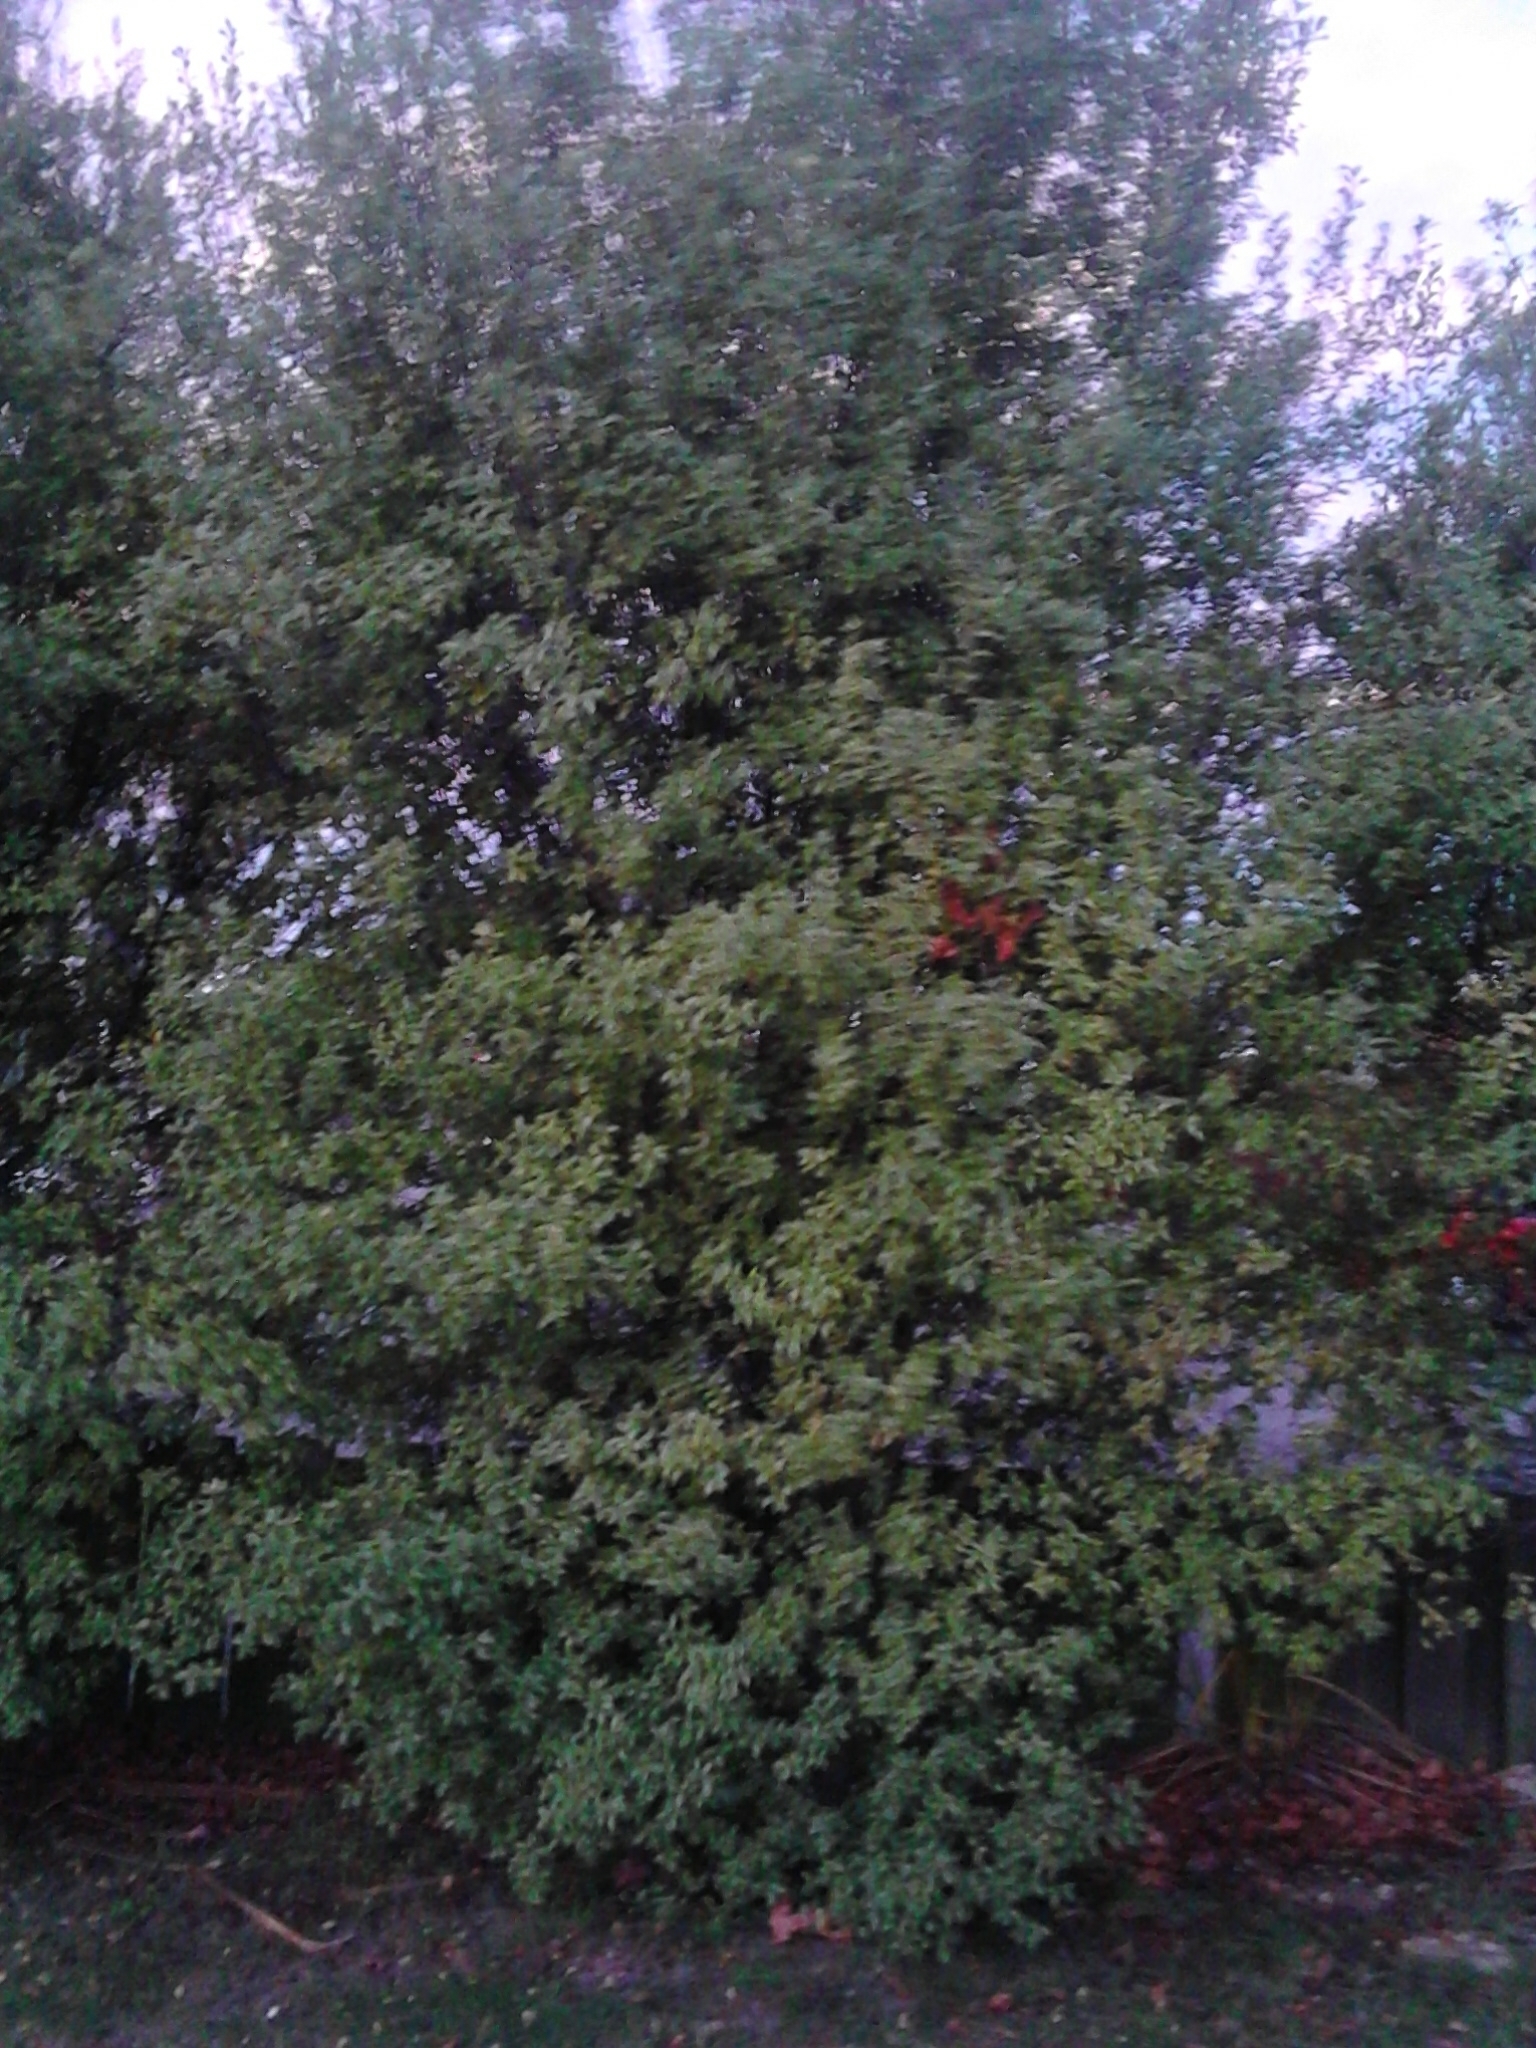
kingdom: Plantae
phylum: Tracheophyta
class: Magnoliopsida
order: Apiales
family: Pittosporaceae
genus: Pittosporum
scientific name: Pittosporum tenuifolium
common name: Kohuhu
